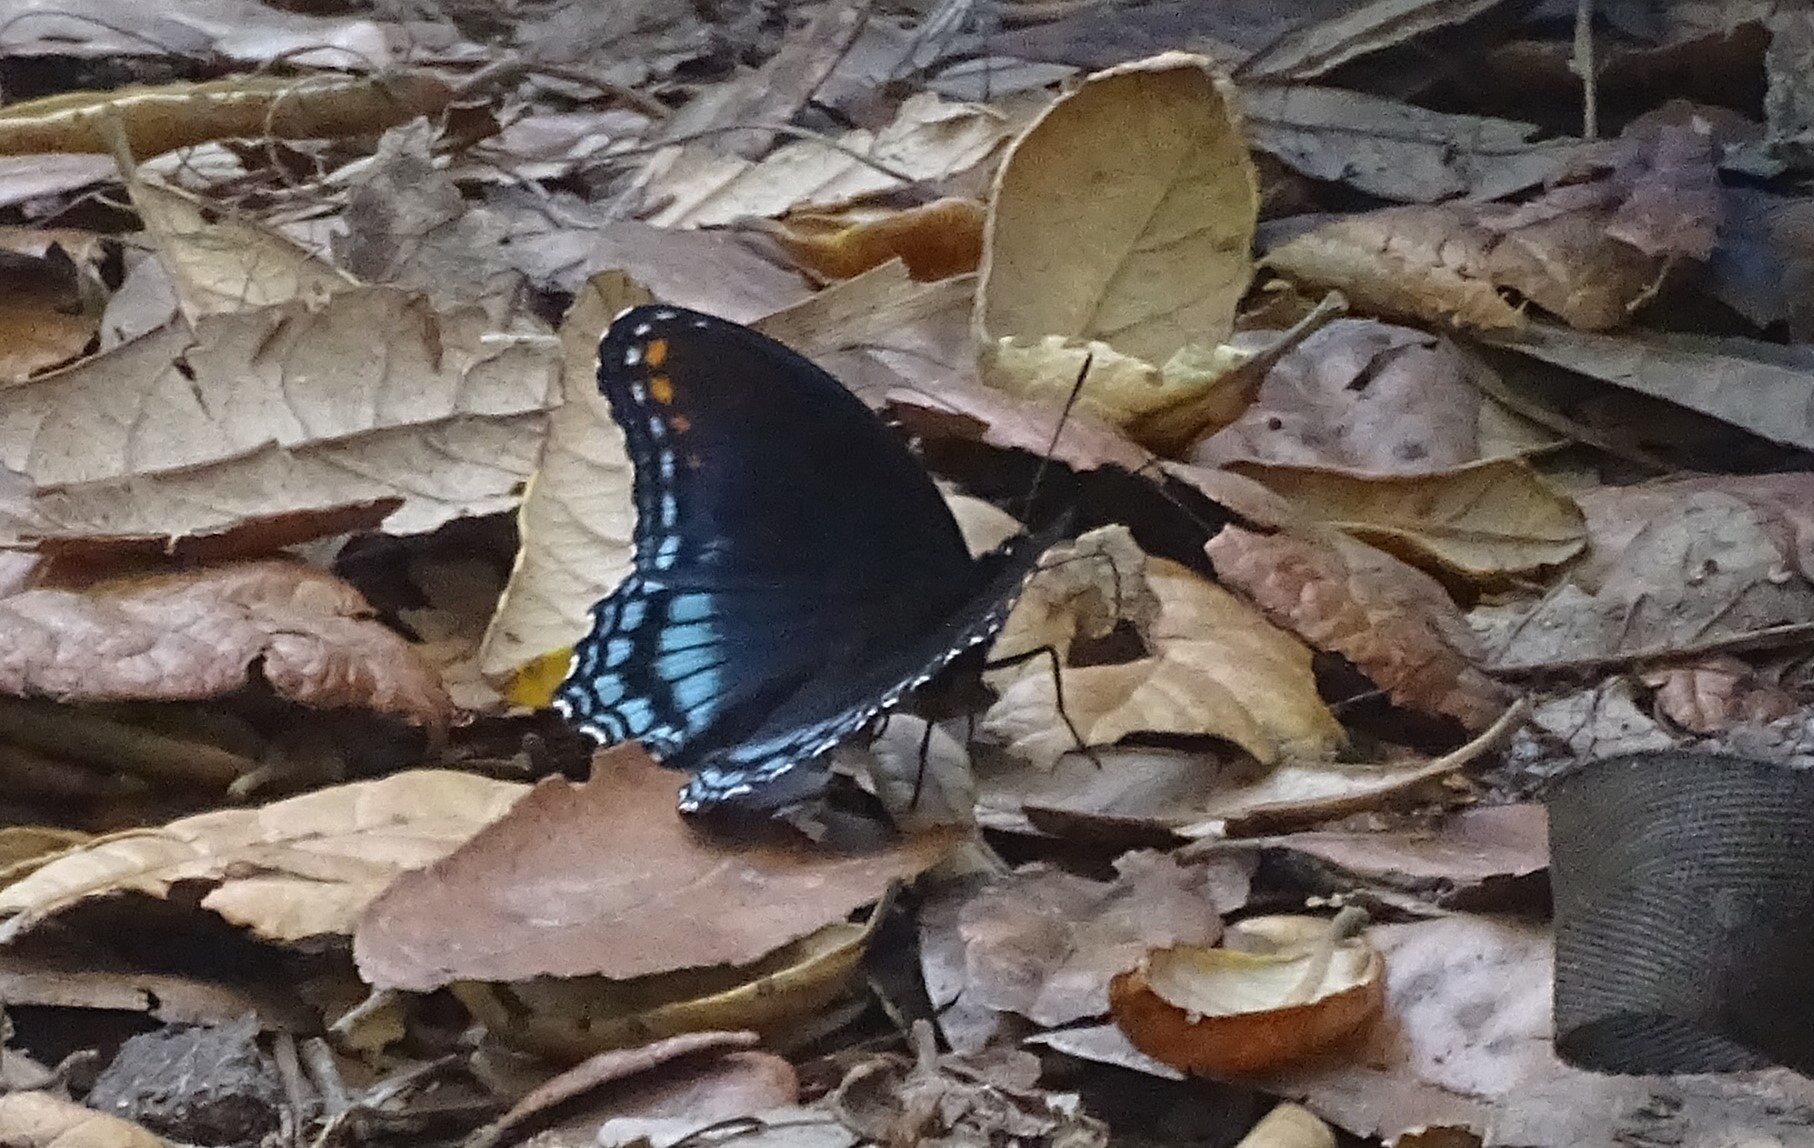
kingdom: Animalia
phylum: Arthropoda
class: Insecta
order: Lepidoptera
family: Nymphalidae
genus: Limenitis
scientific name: Limenitis astyanax
